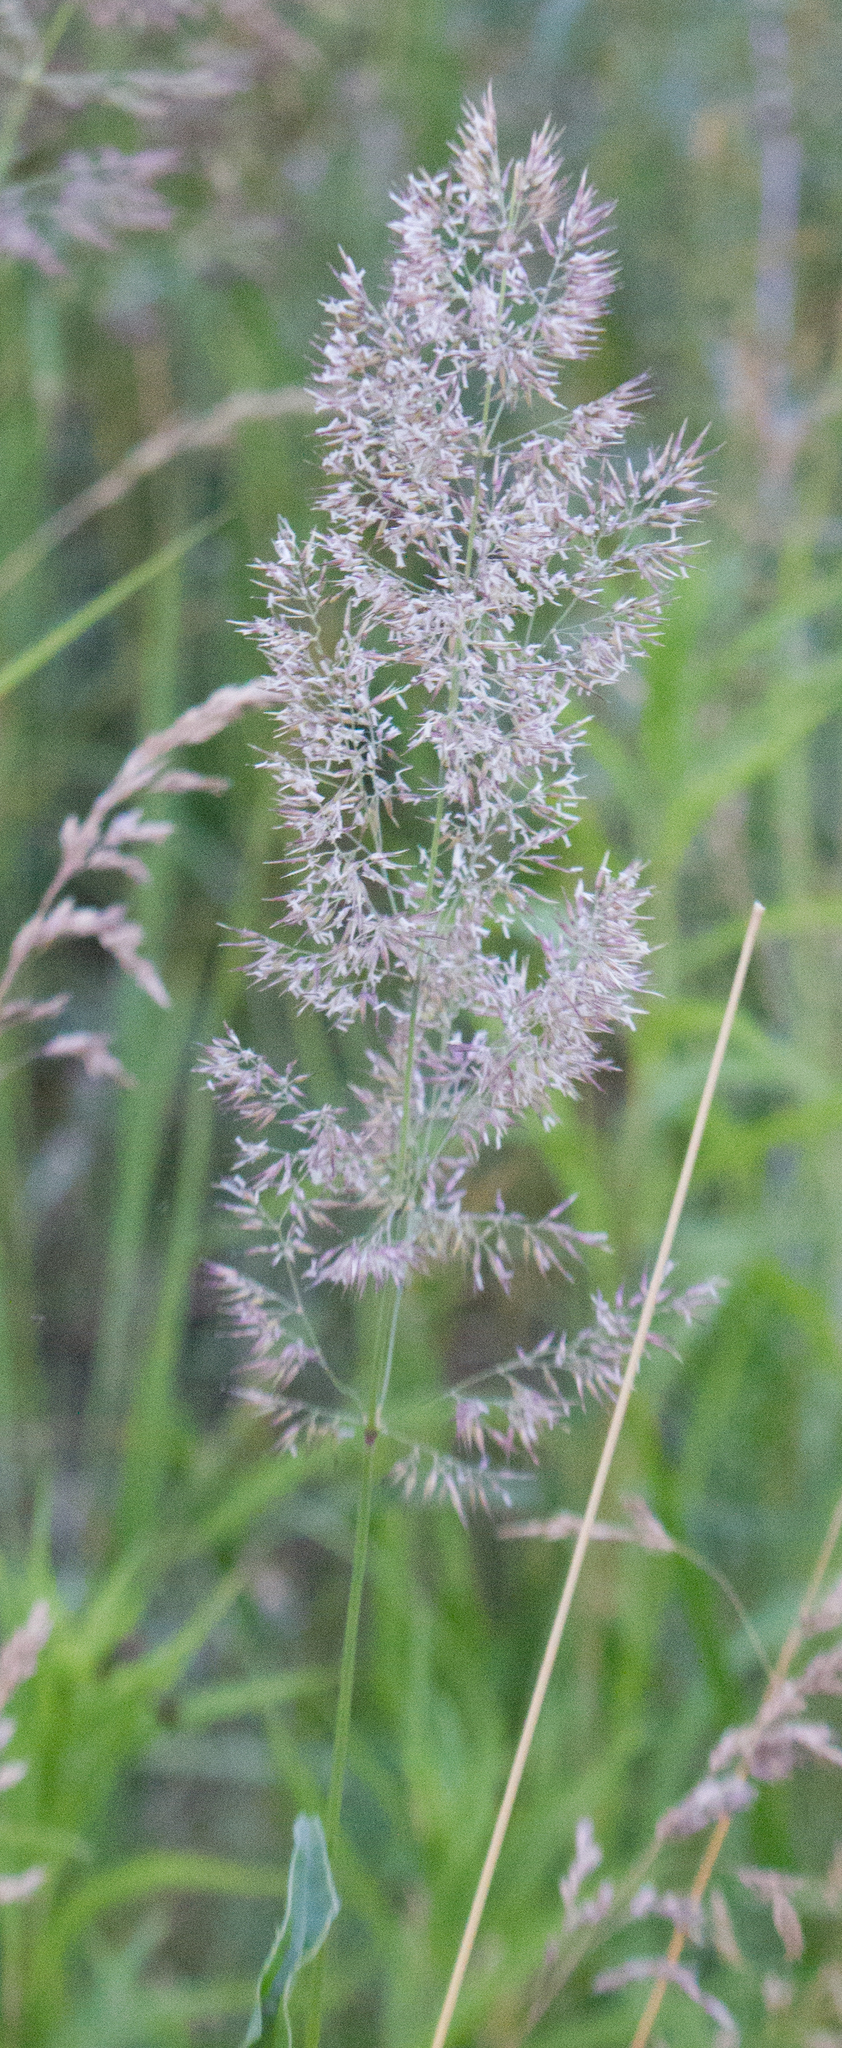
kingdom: Plantae
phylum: Tracheophyta
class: Liliopsida
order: Poales
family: Poaceae
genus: Calamagrostis
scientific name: Calamagrostis epigejos
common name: Wood small-reed
